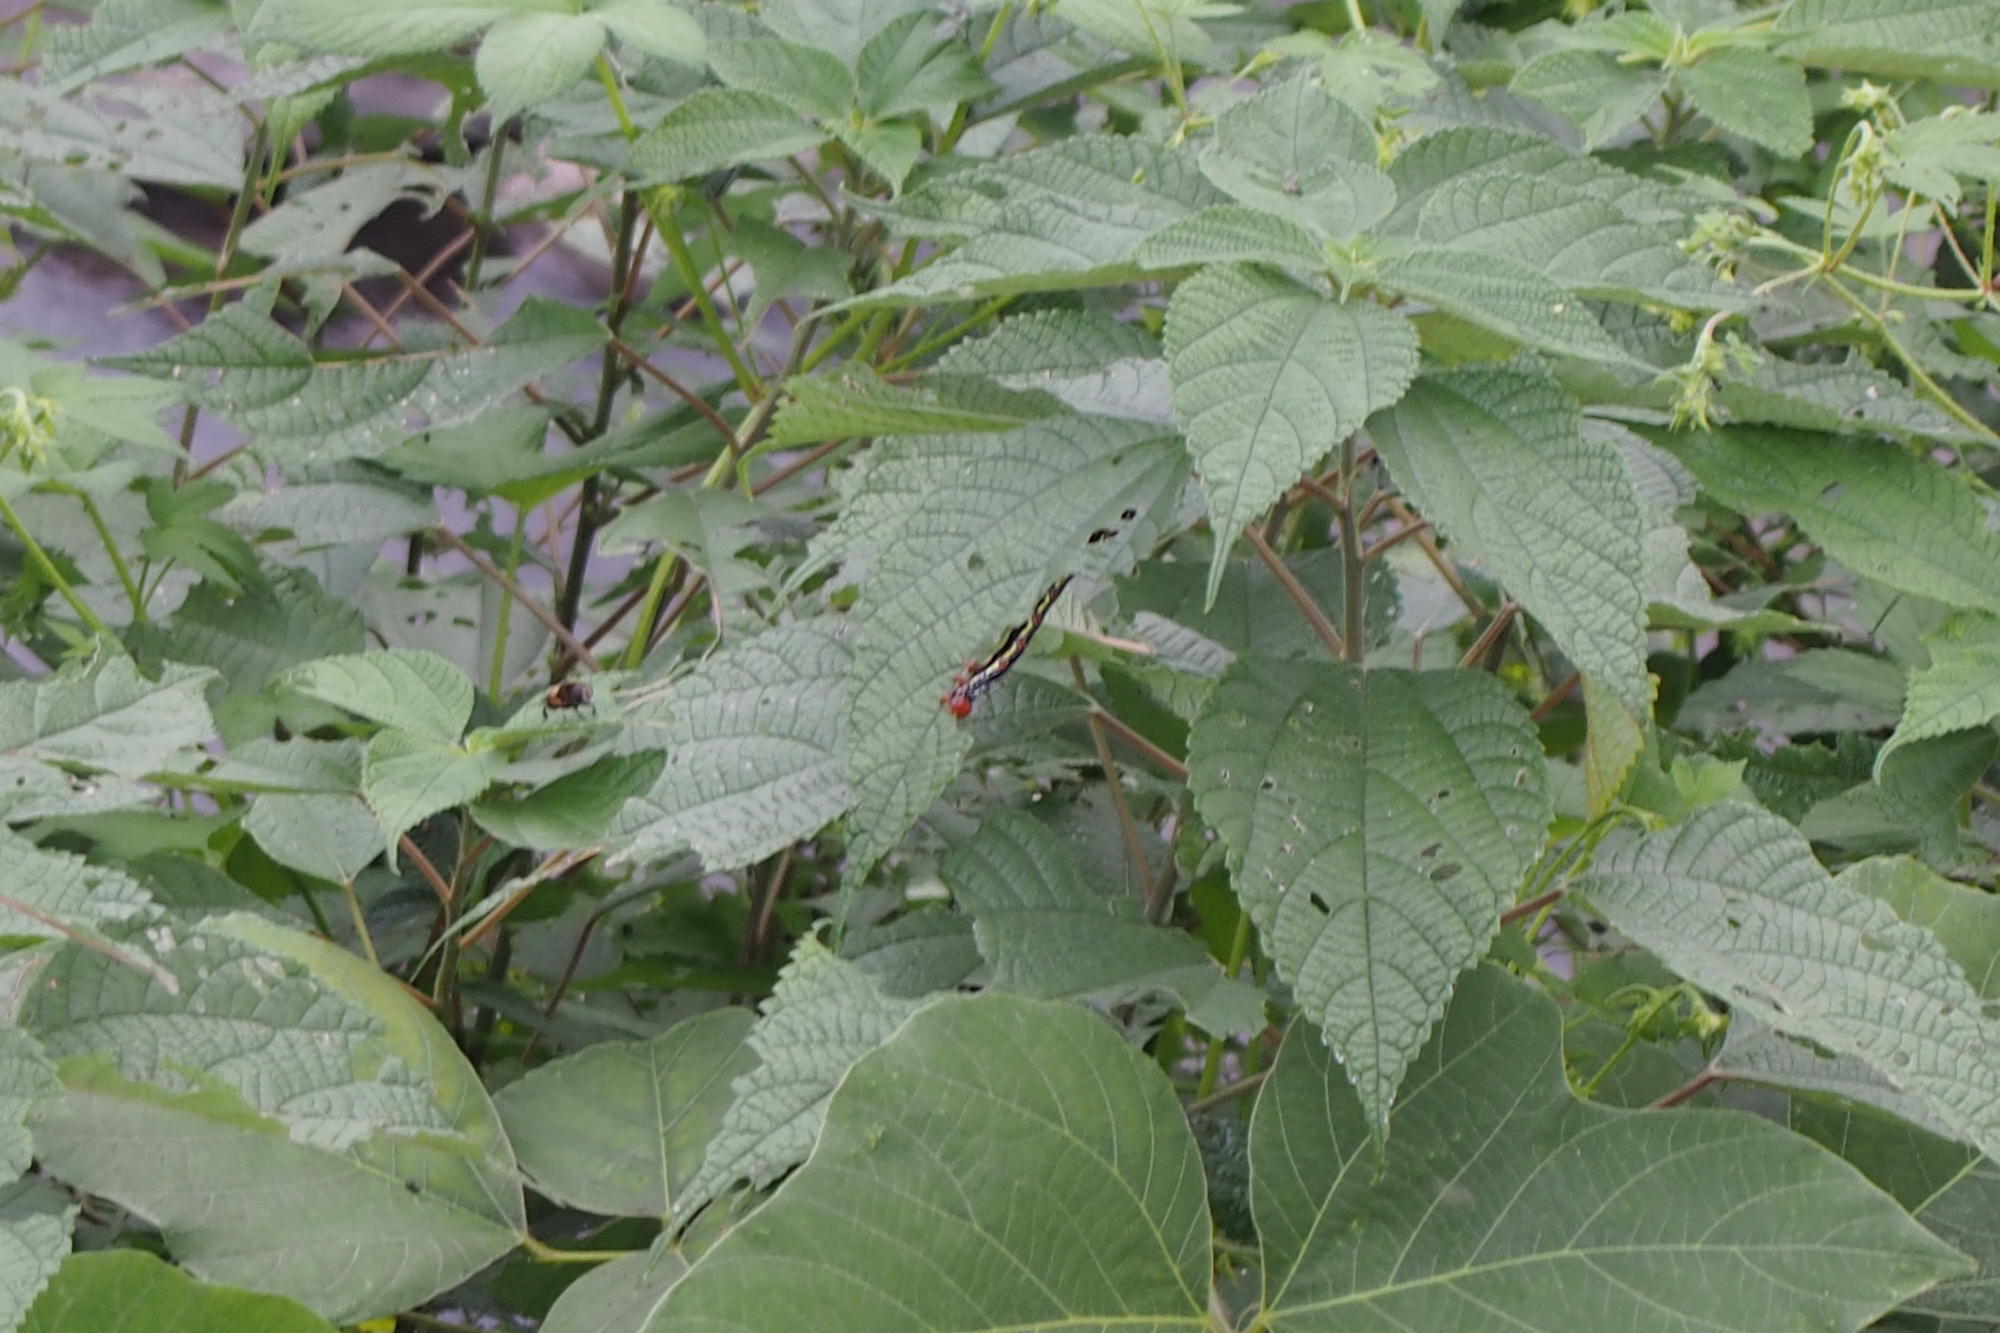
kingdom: Animalia
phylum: Arthropoda
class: Insecta
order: Lepidoptera
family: Erebidae
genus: Arcte
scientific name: Arcte coerula
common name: Ramie moth
